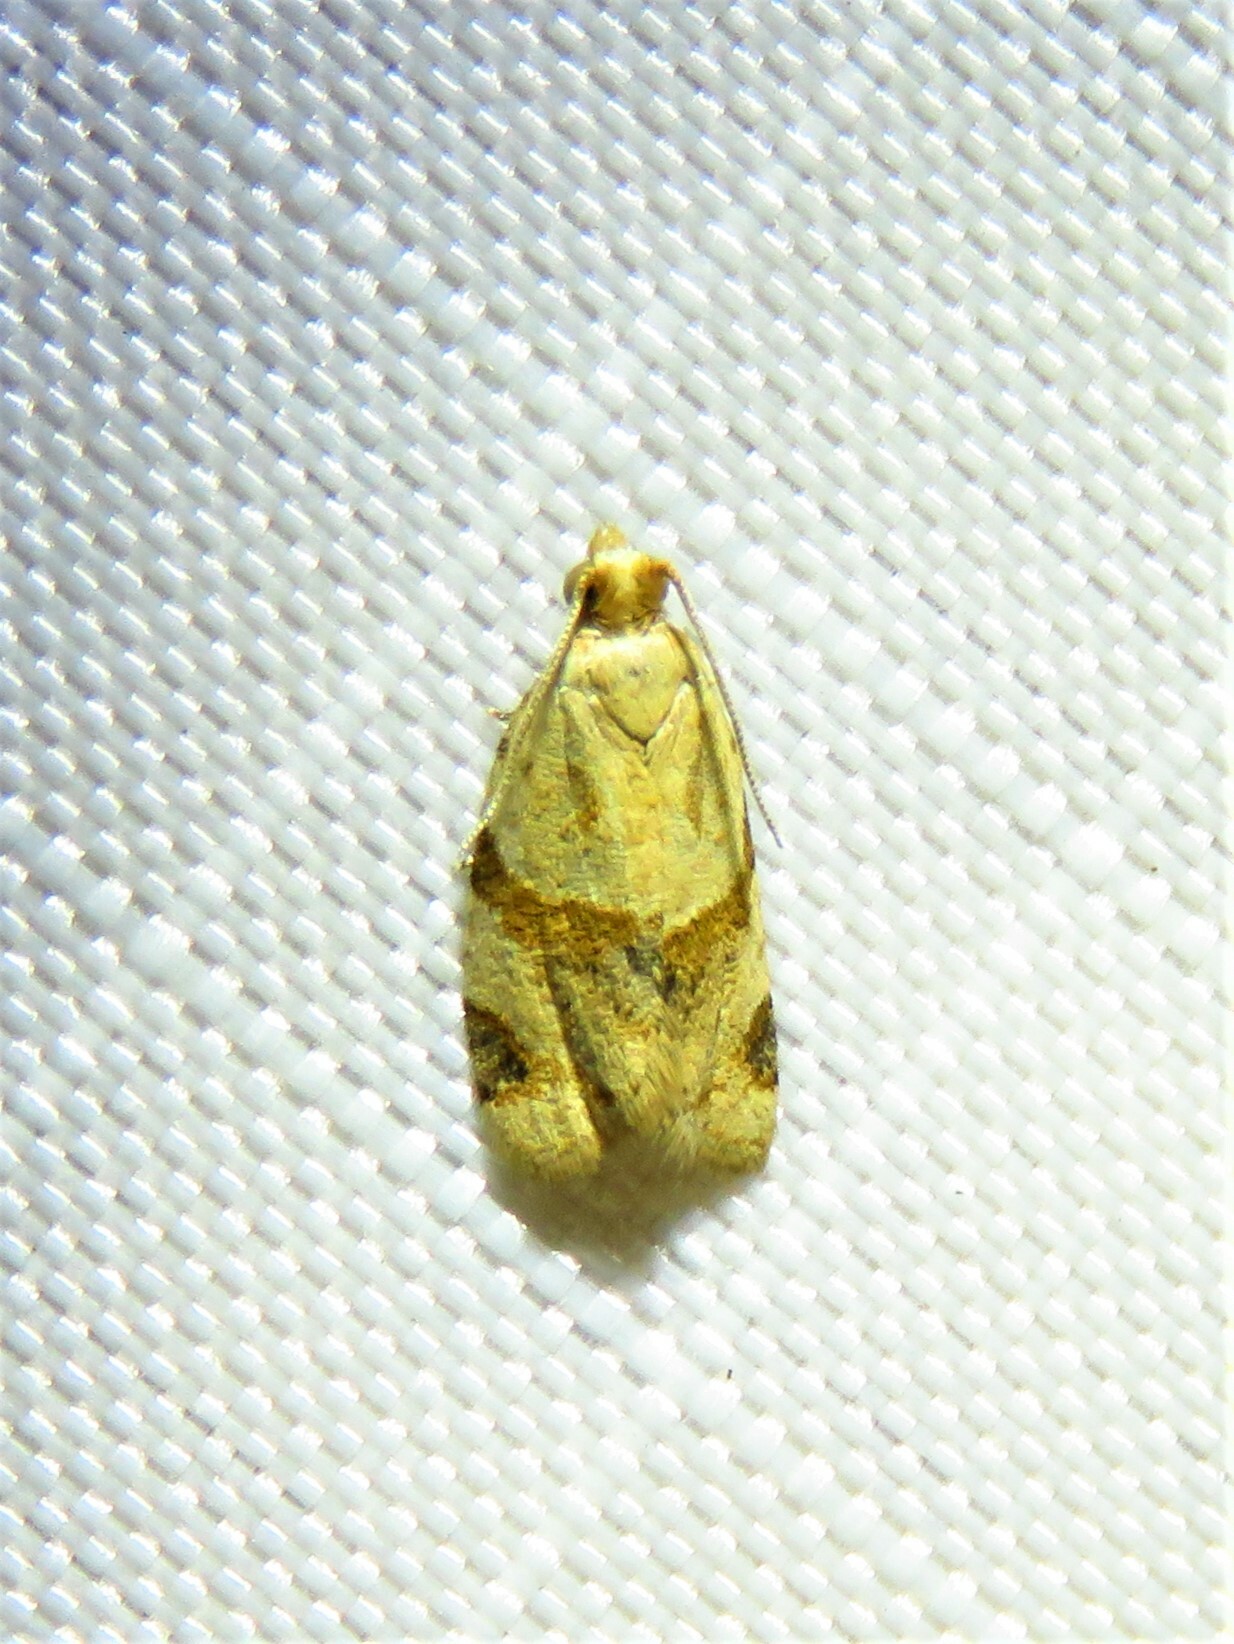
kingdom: Animalia
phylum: Arthropoda
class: Insecta
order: Lepidoptera
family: Tortricidae
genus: Clepsis
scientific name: Clepsis peritana
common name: Garden tortrix
